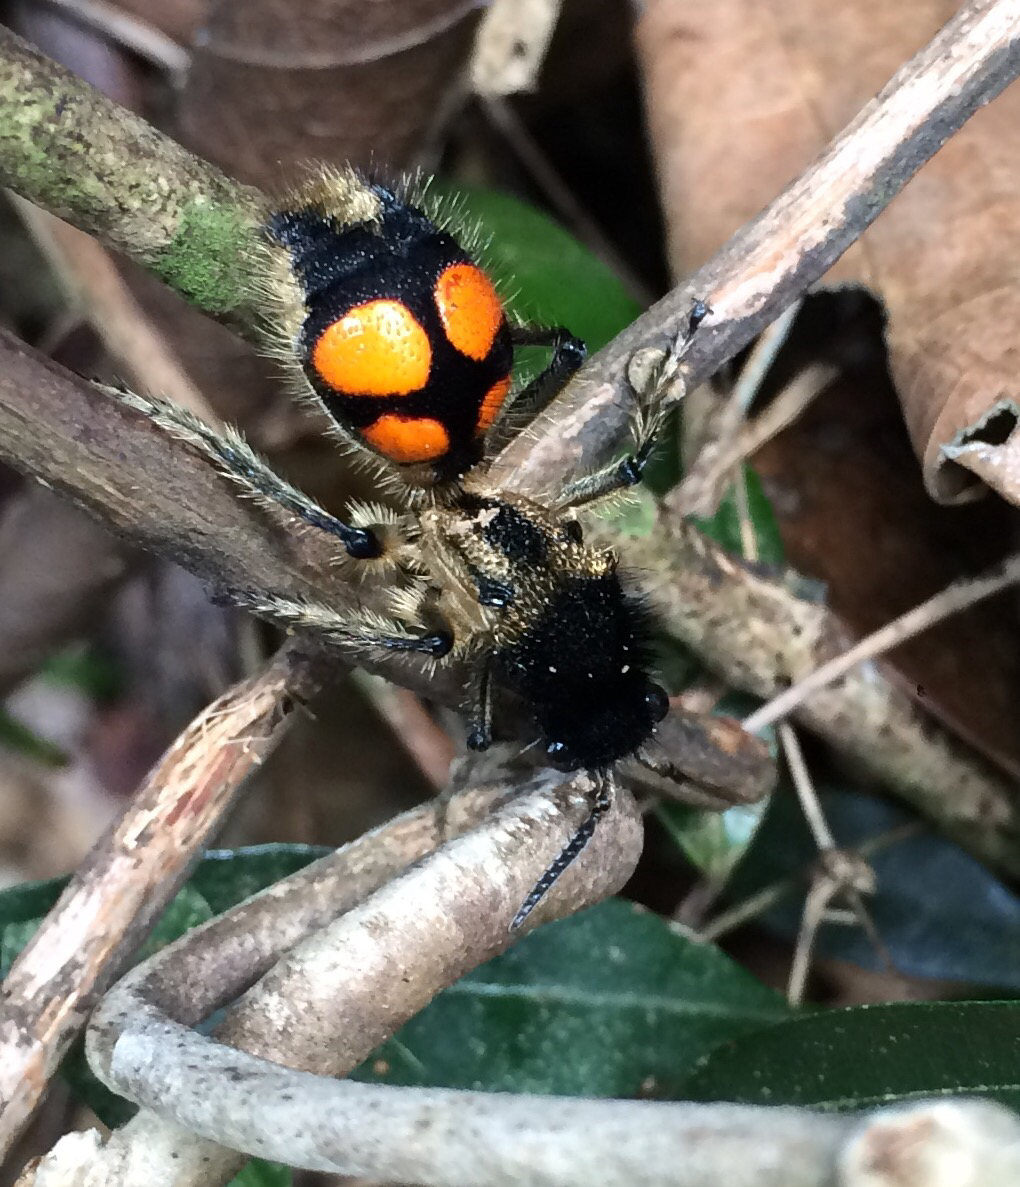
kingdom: Animalia
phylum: Arthropoda
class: Insecta
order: Hymenoptera
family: Mutillidae
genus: Traumatomutilla
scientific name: Traumatomutilla
